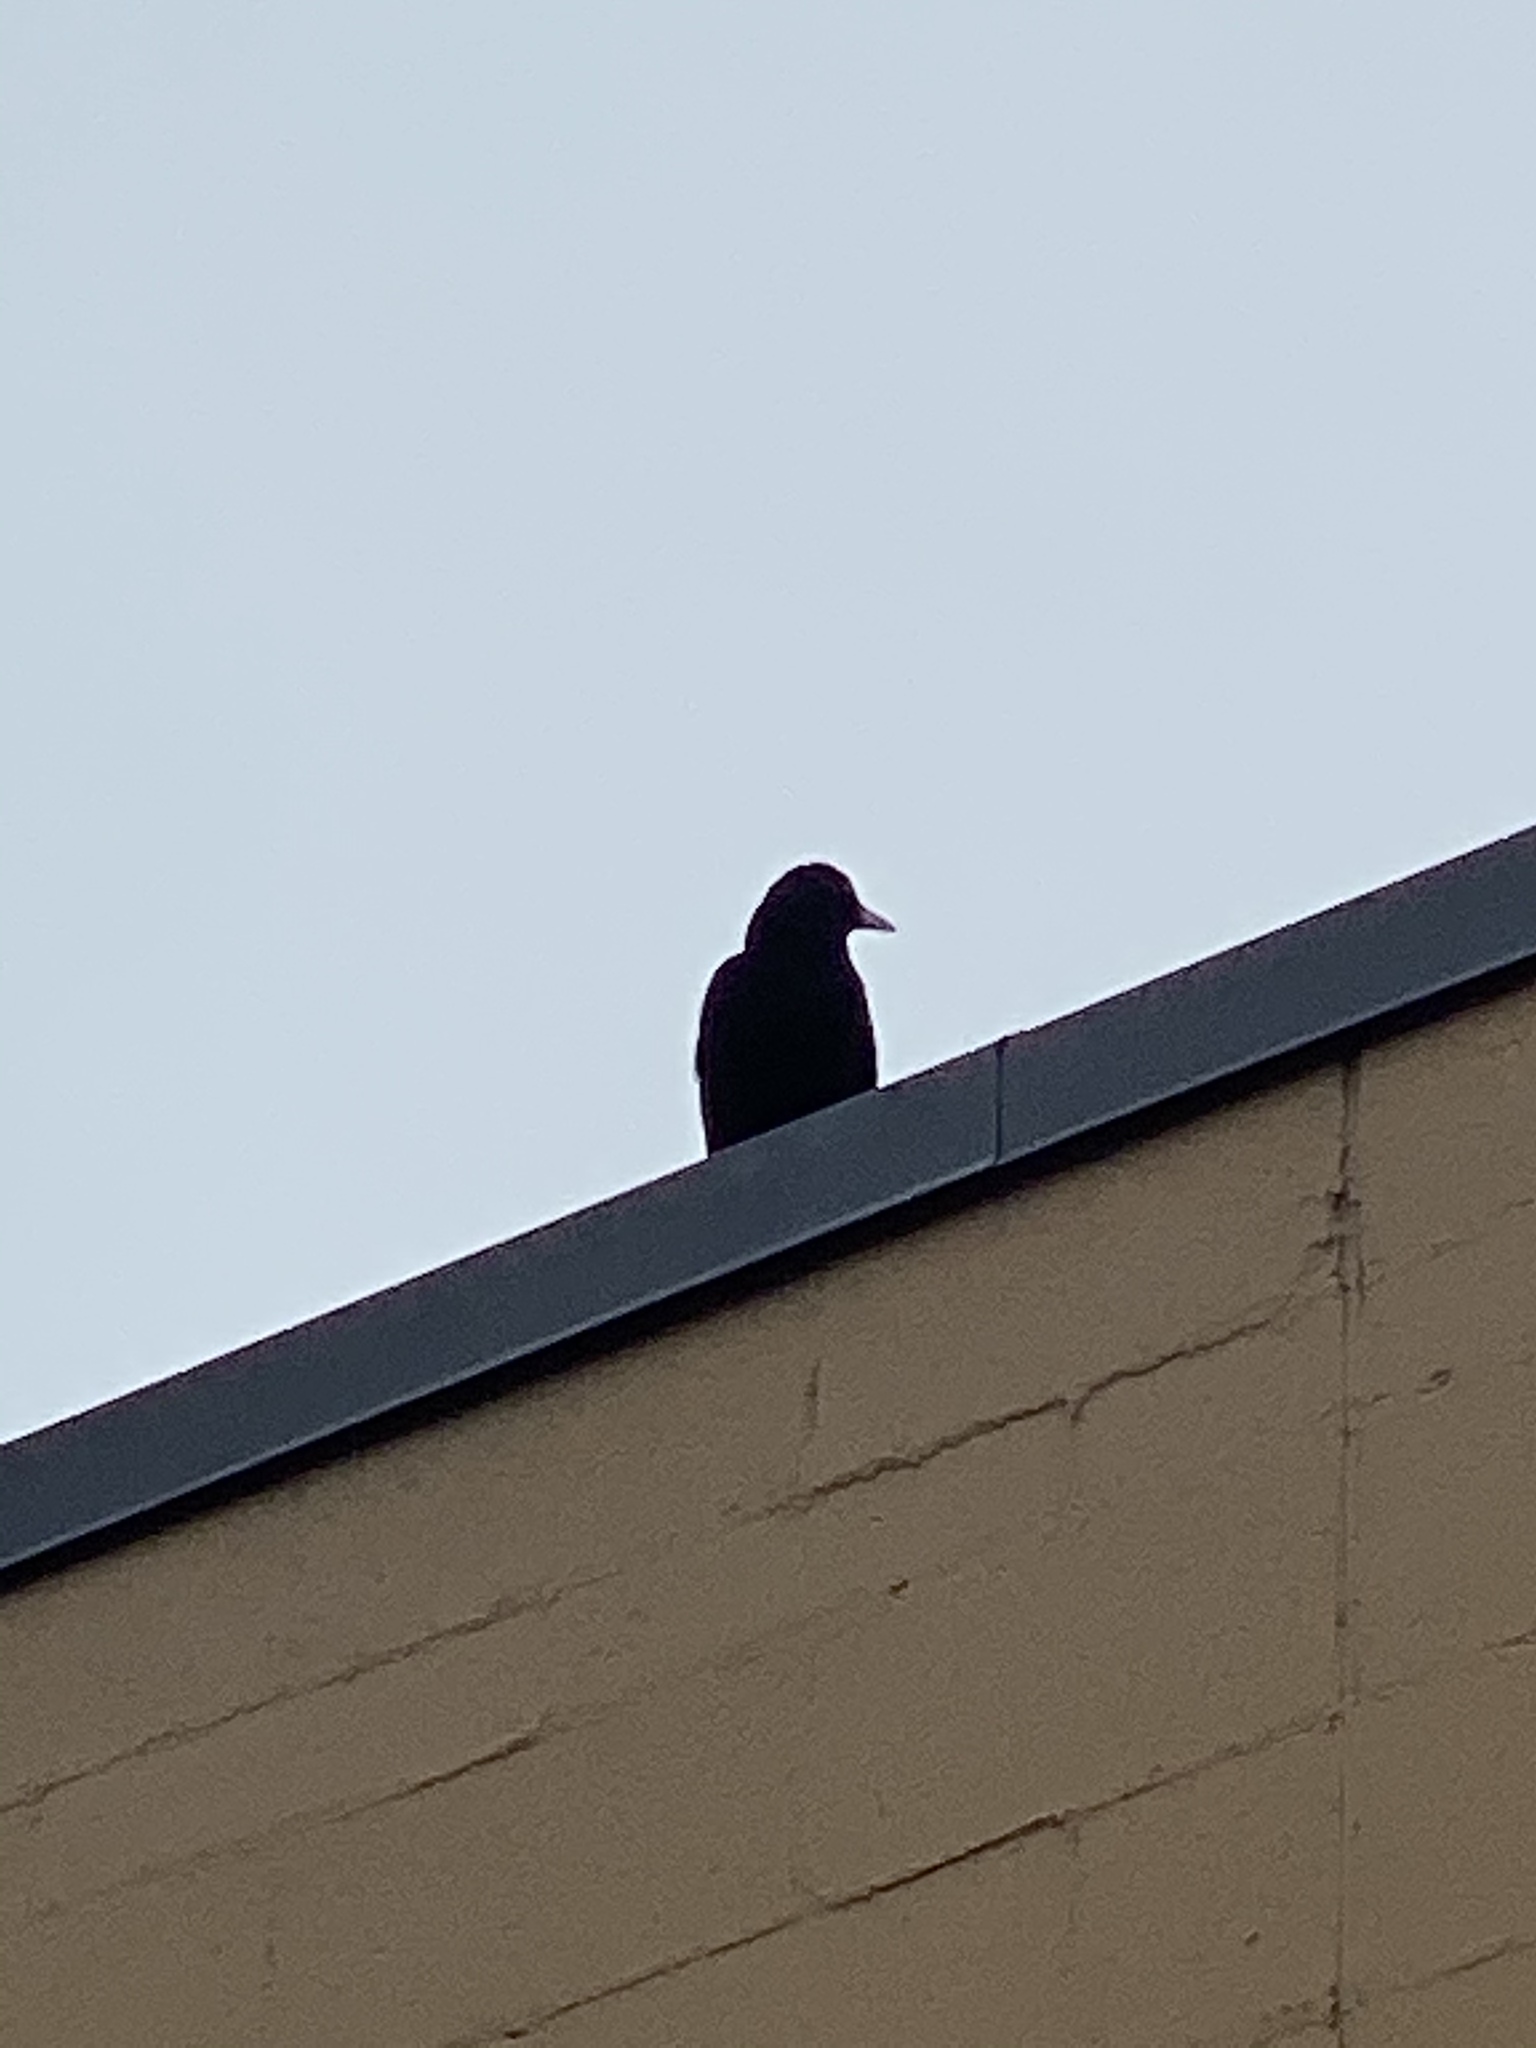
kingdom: Animalia
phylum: Chordata
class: Aves
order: Passeriformes
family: Corvidae
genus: Corvus
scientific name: Corvus brachyrhynchos
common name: American crow
